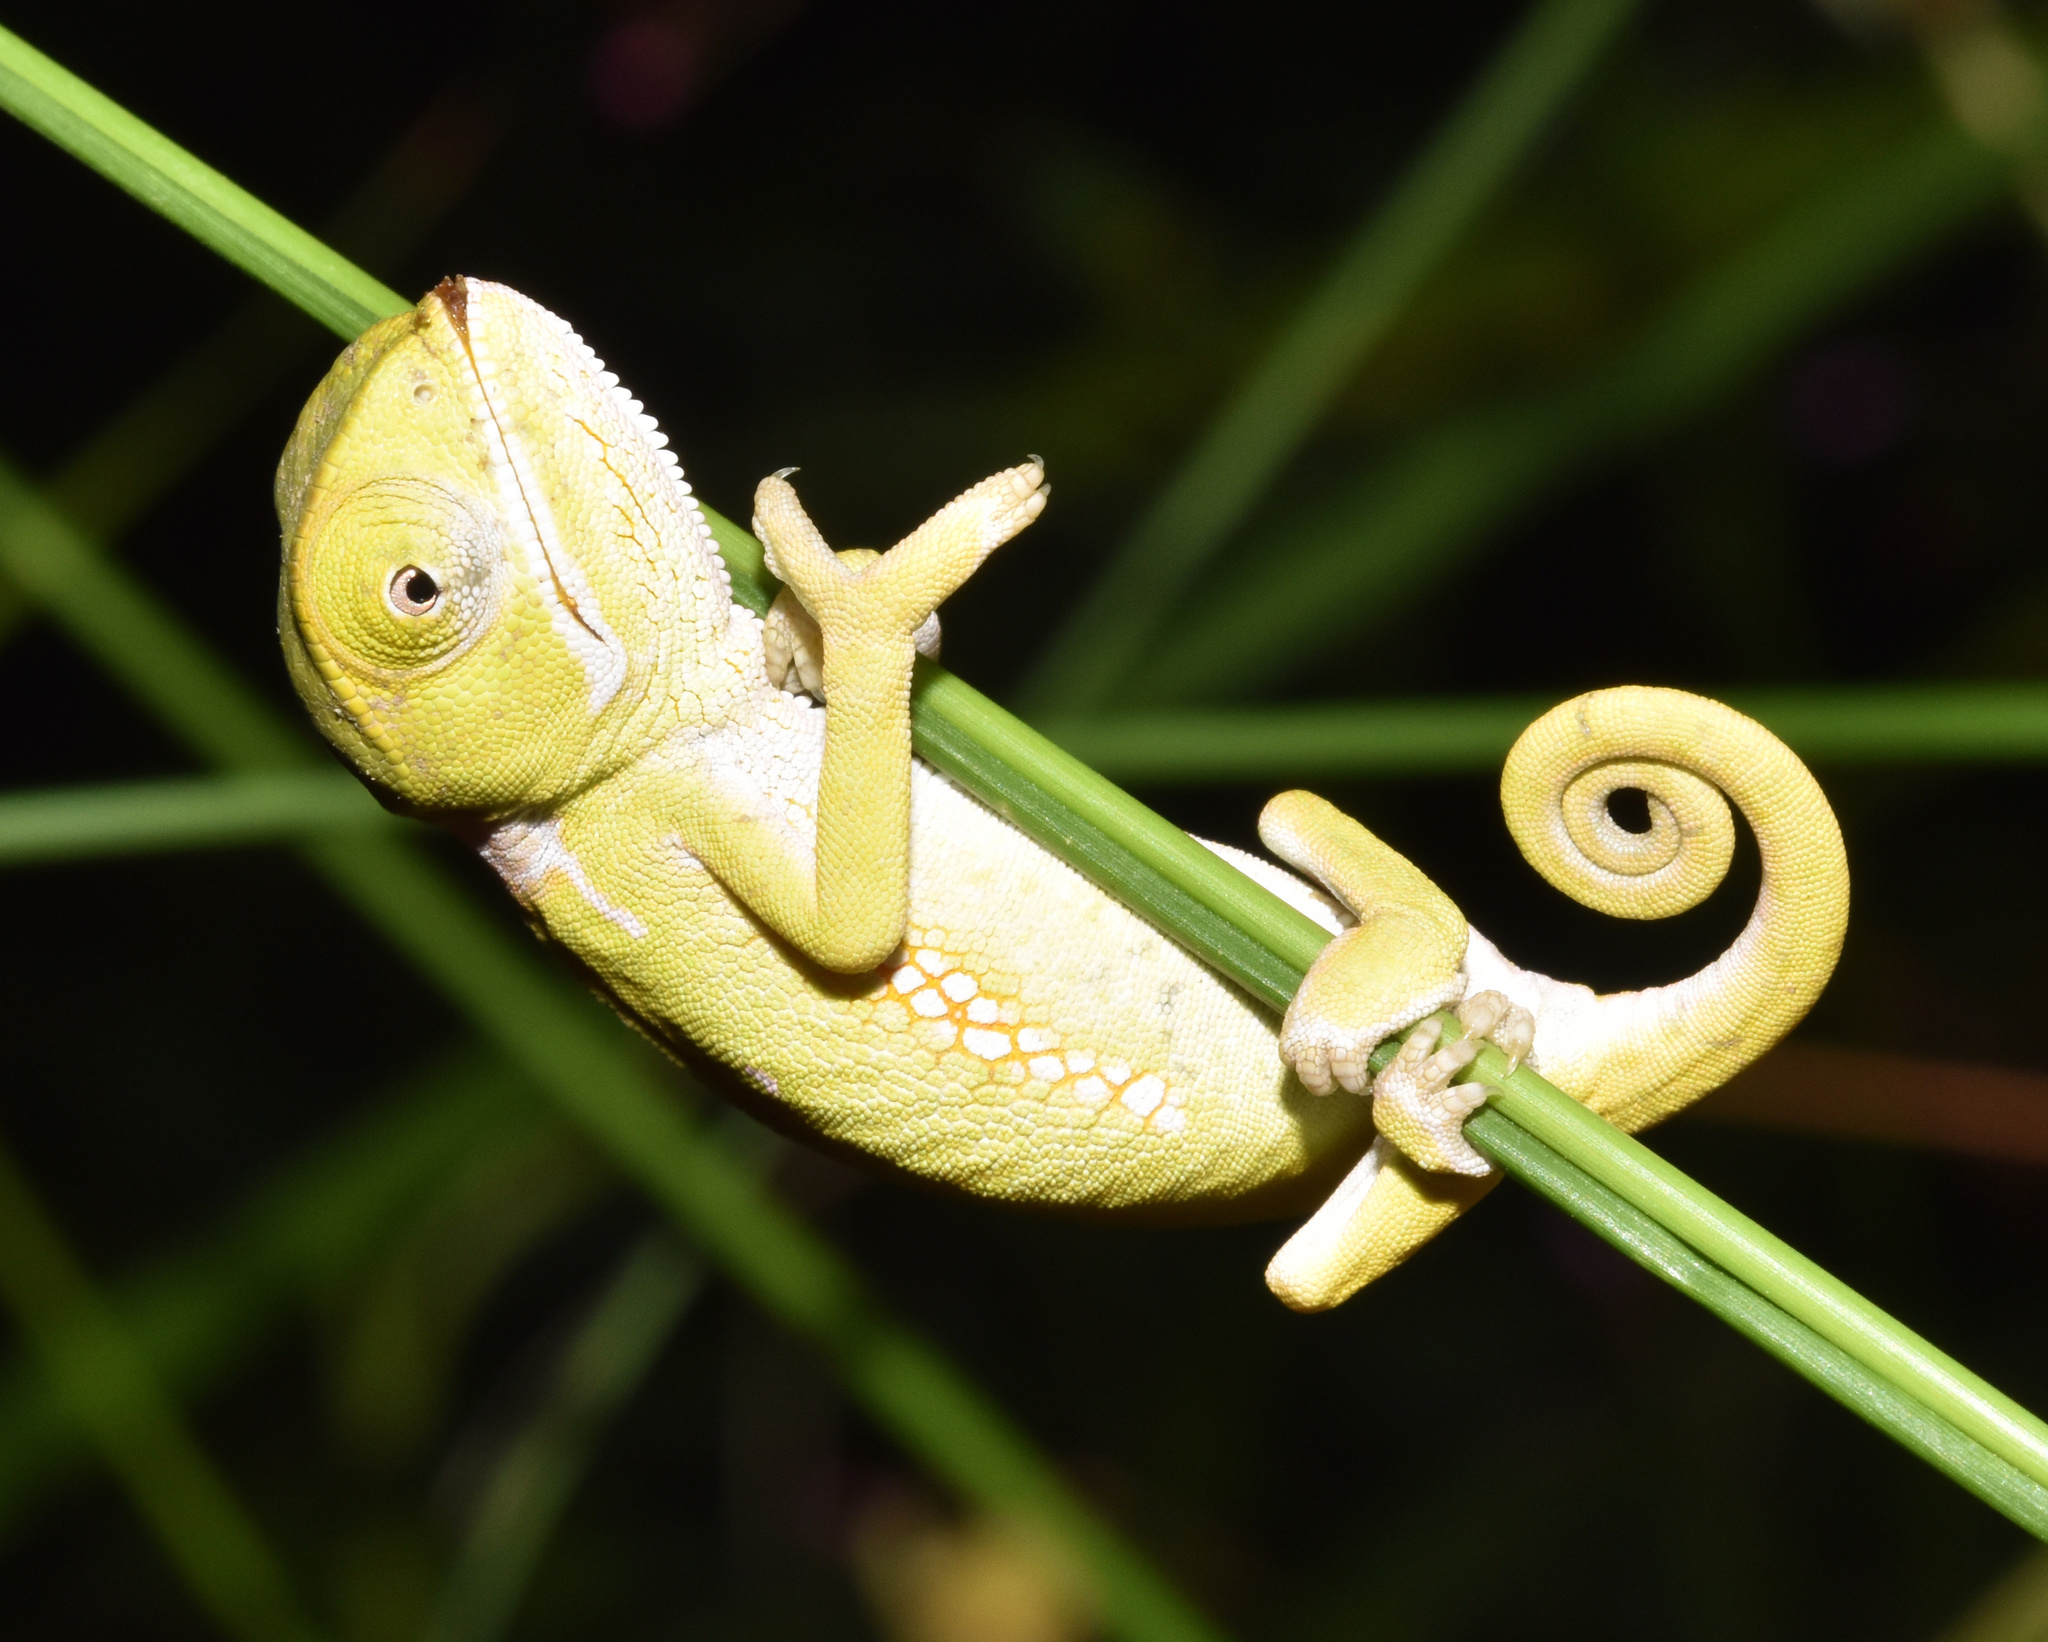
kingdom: Animalia
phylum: Chordata
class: Squamata
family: Chamaeleonidae
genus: Chamaeleo
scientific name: Chamaeleo dilepis
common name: Flapneck chameleon
